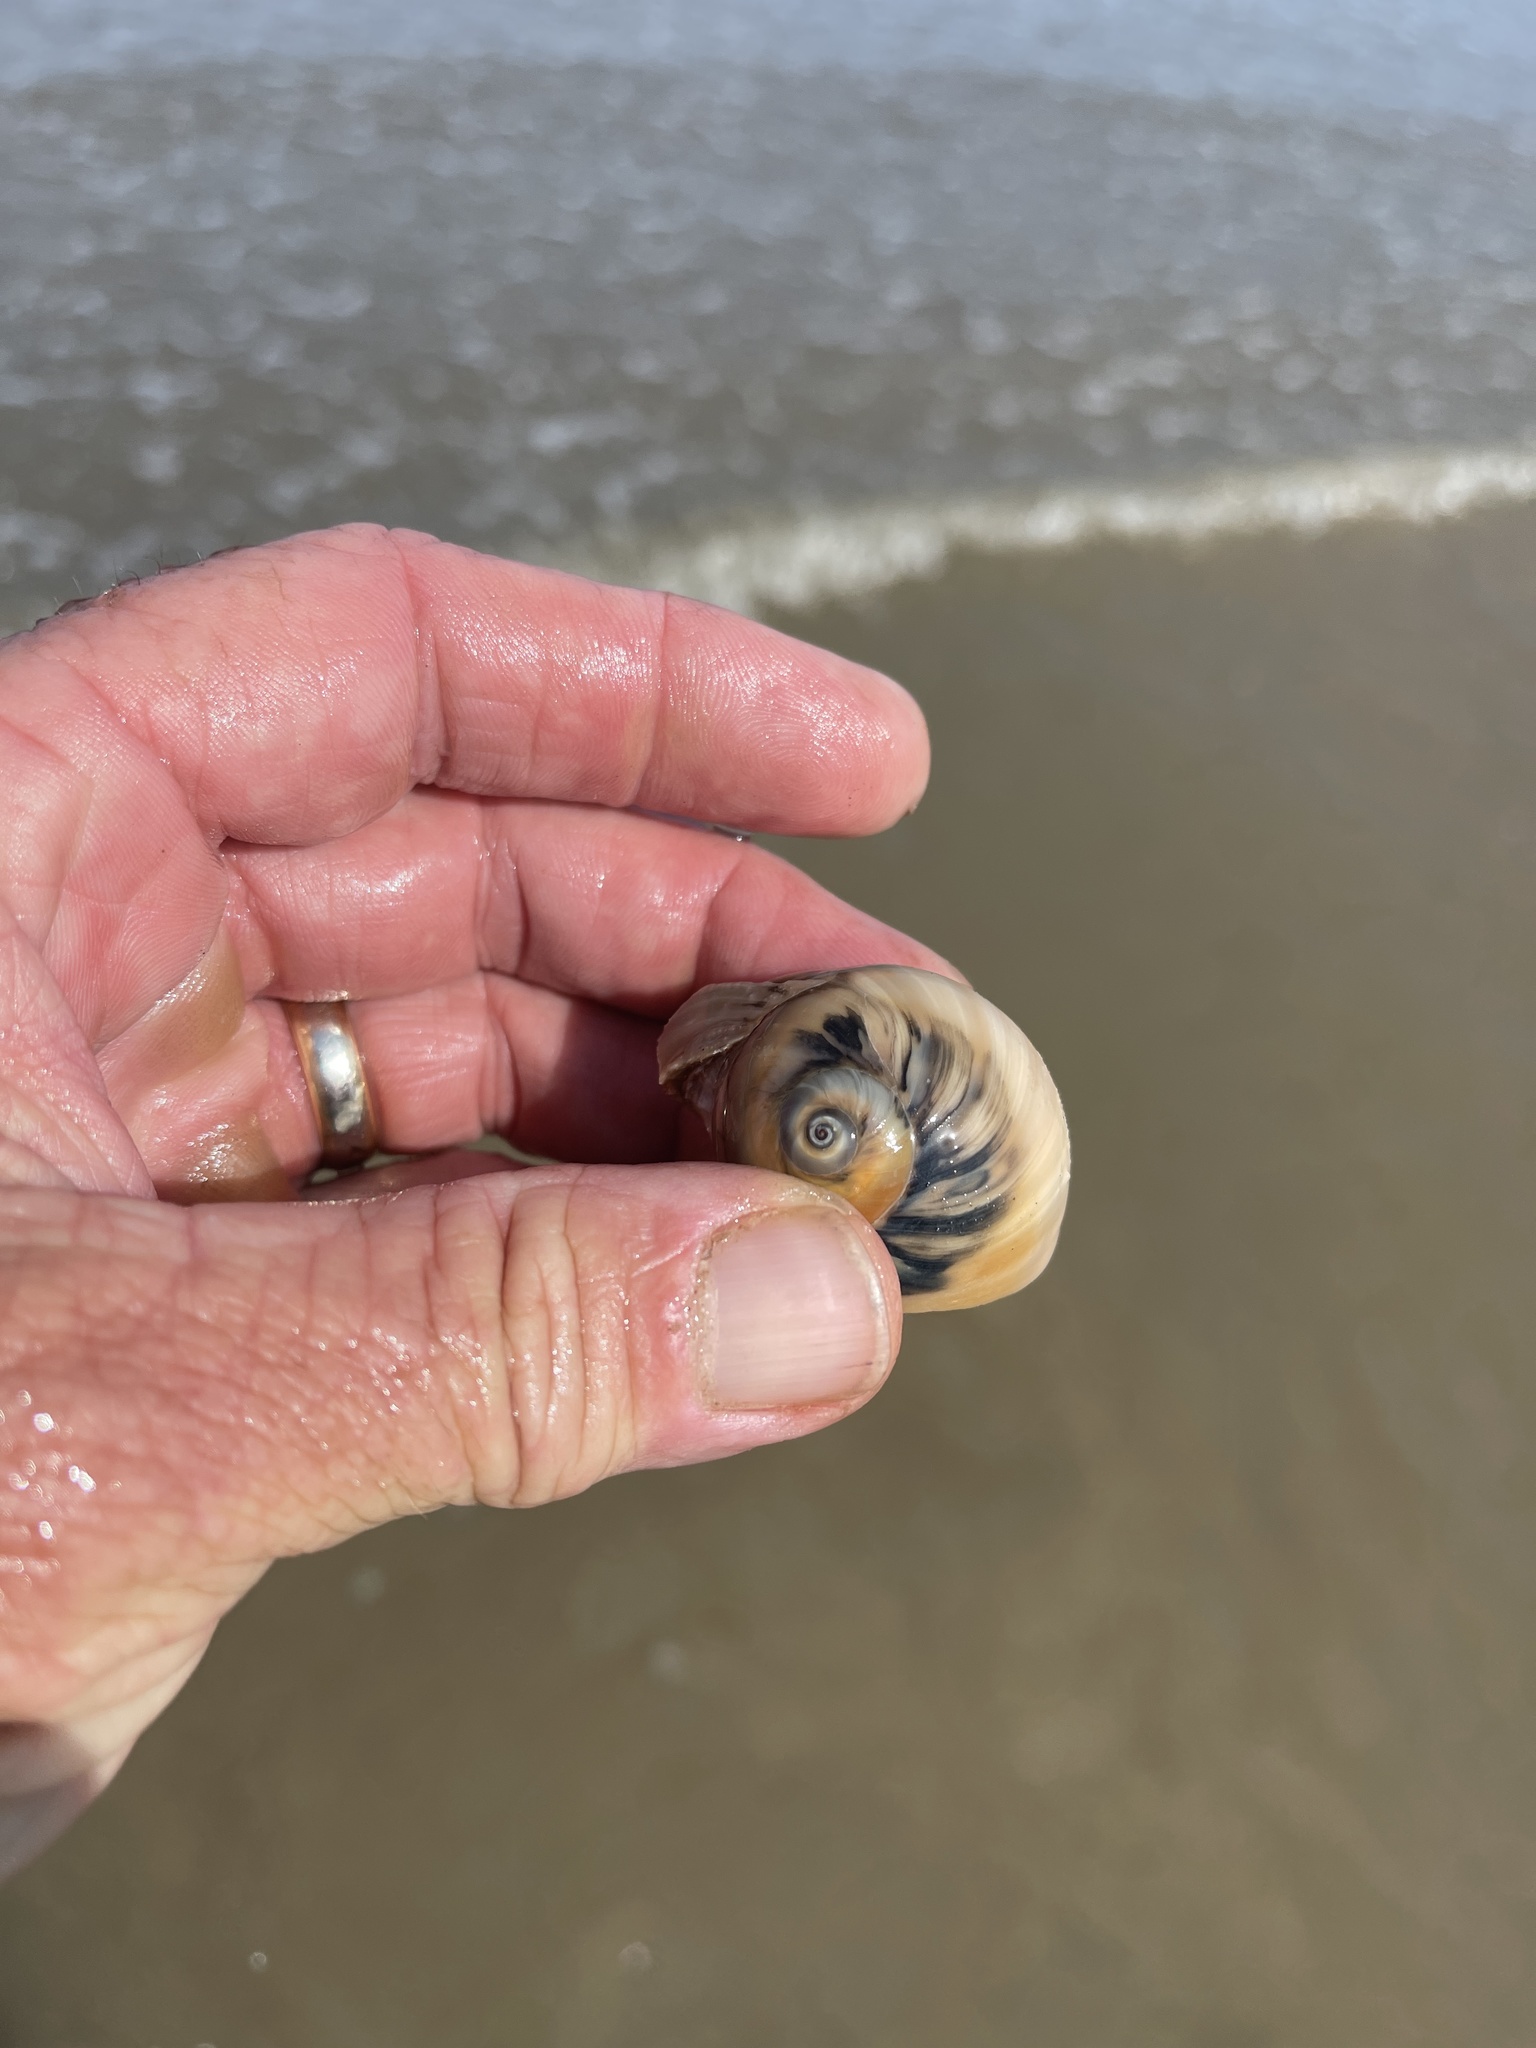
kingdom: Animalia
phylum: Mollusca
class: Gastropoda
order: Littorinimorpha
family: Naticidae
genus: Neverita
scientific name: Neverita duplicata
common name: Lobed moonsnail
